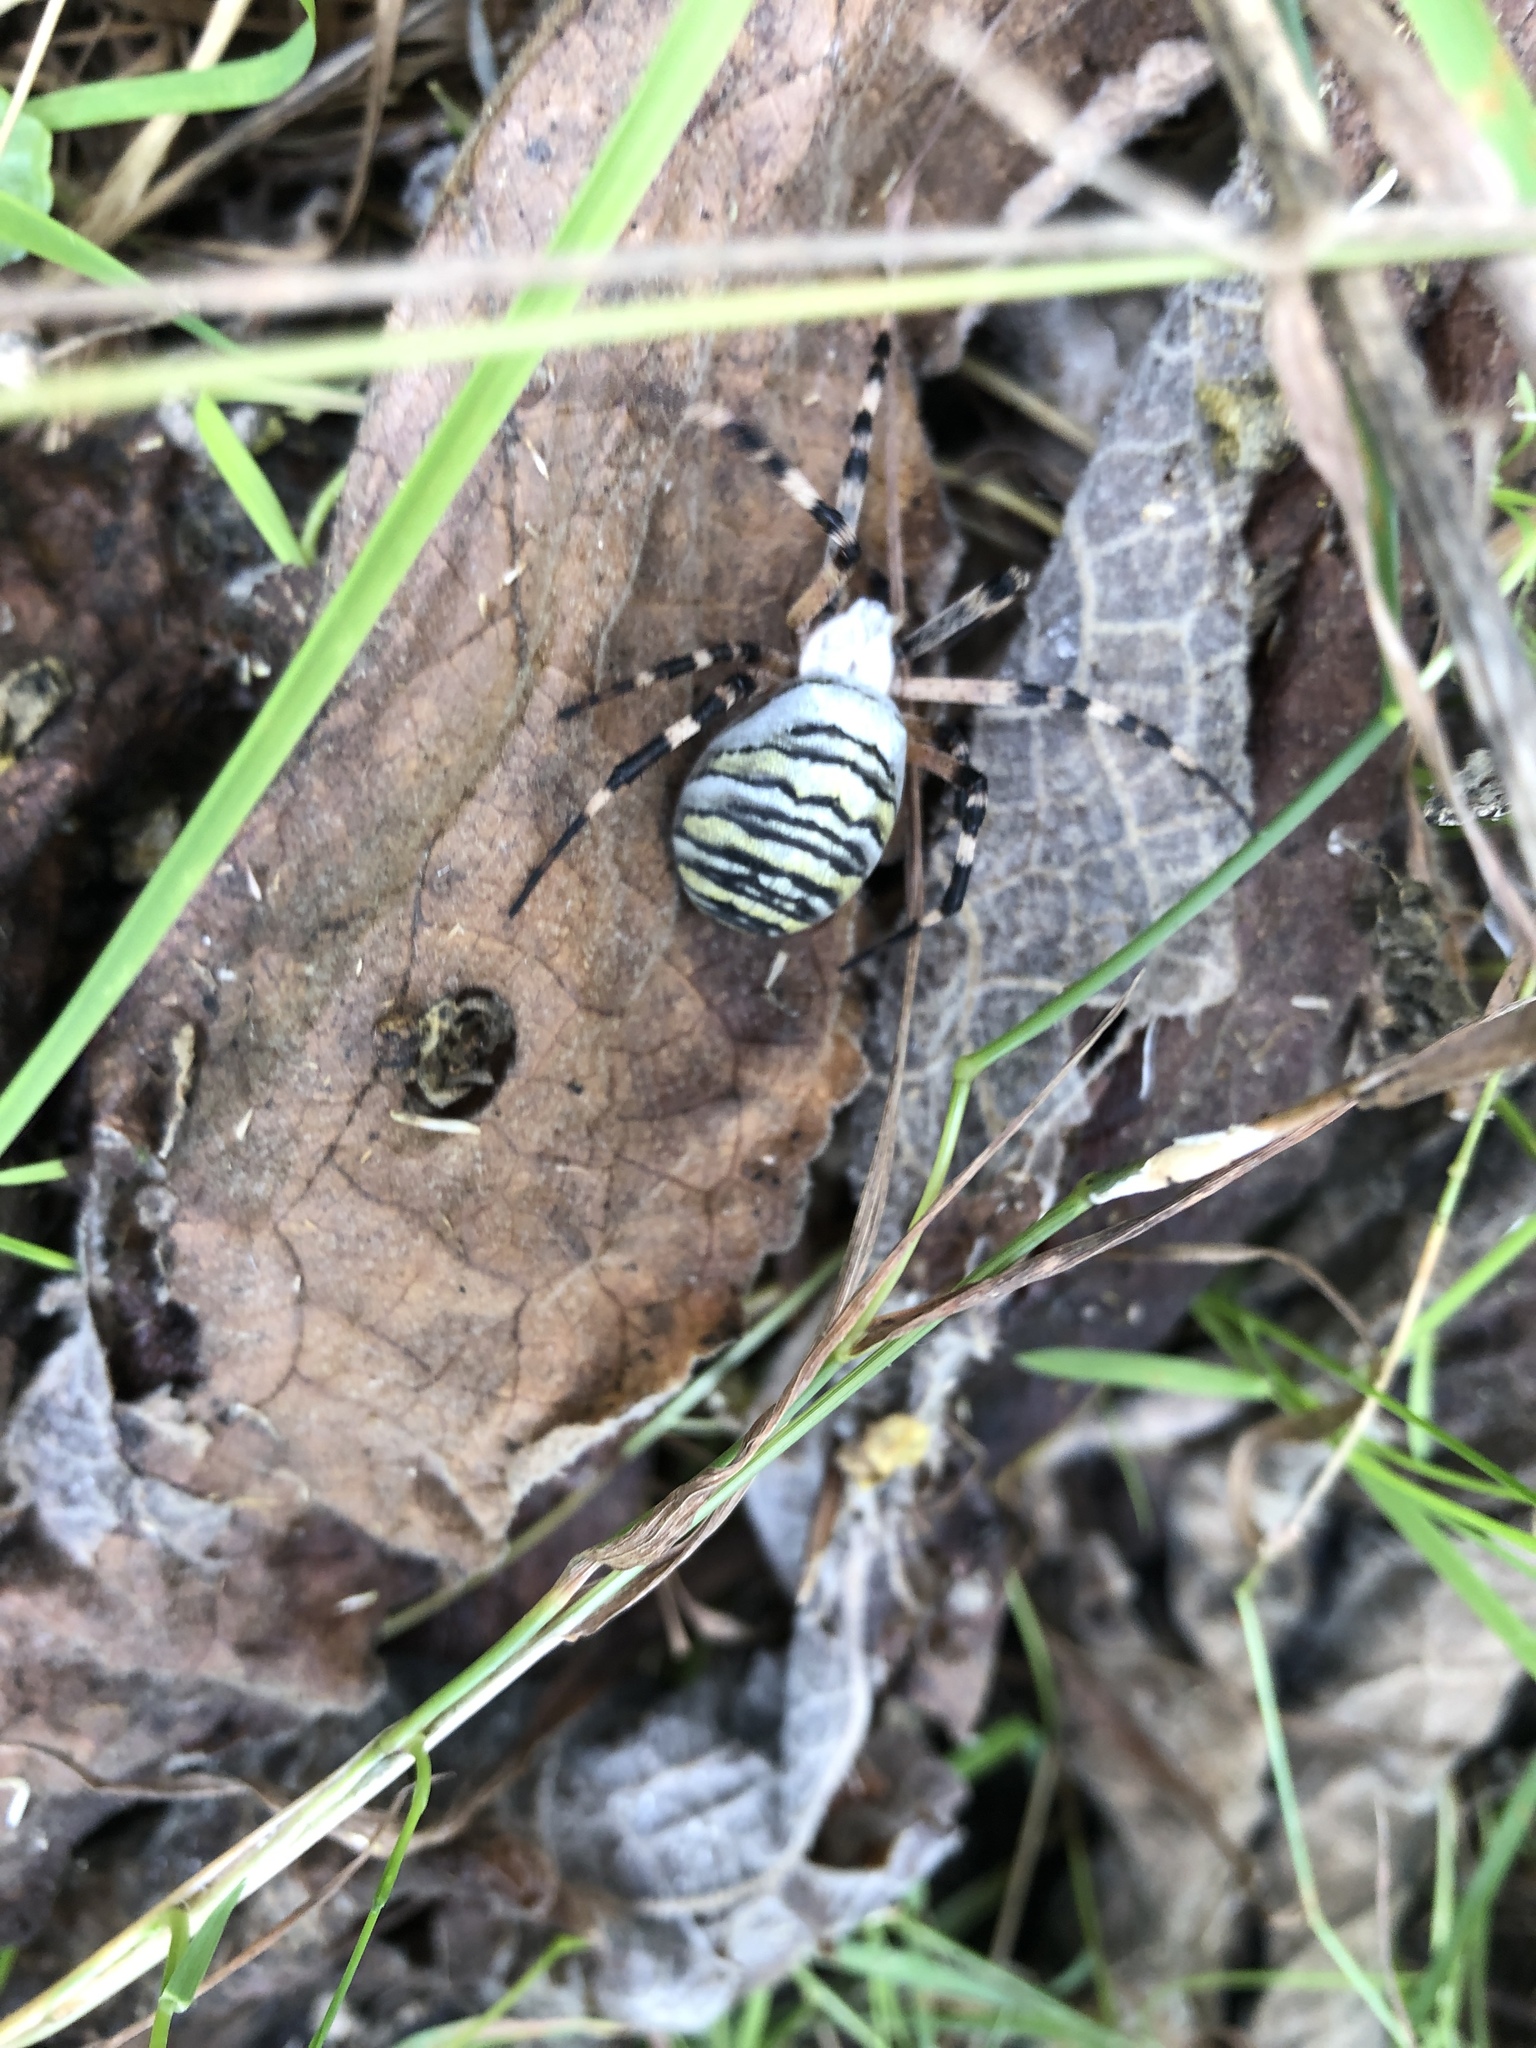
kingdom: Animalia
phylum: Arthropoda
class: Arachnida
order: Araneae
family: Araneidae
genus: Argiope
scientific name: Argiope bruennichi
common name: Wasp spider
